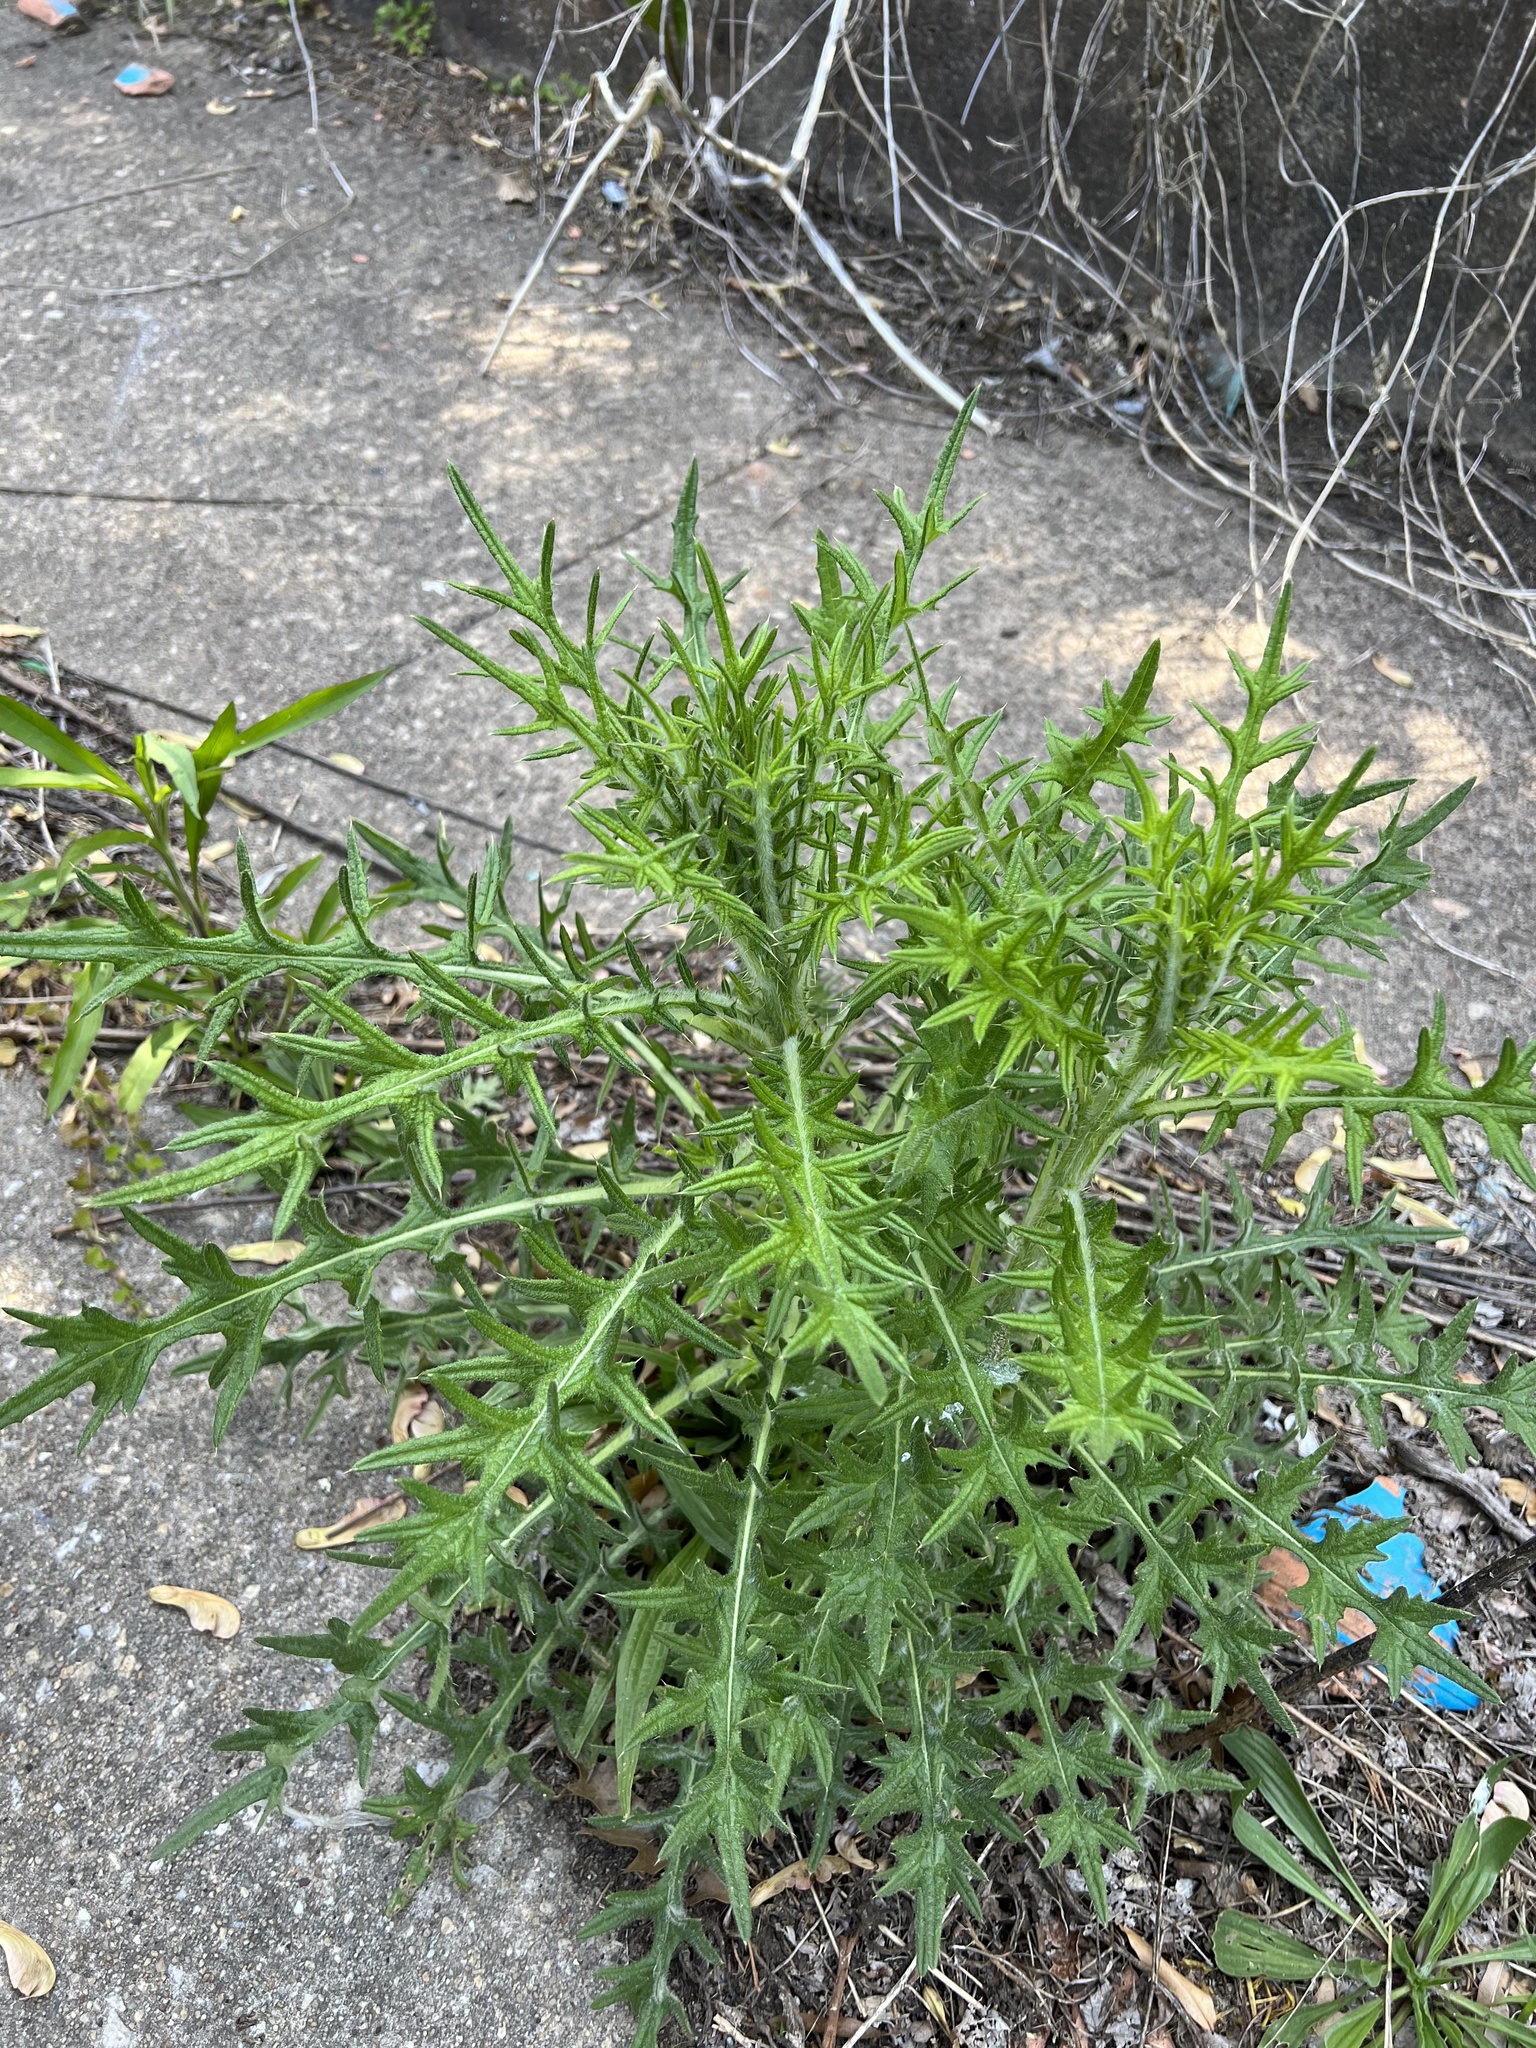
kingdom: Plantae
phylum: Tracheophyta
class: Magnoliopsida
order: Asterales
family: Asteraceae
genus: Cirsium
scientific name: Cirsium vulgare
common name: Bull thistle
